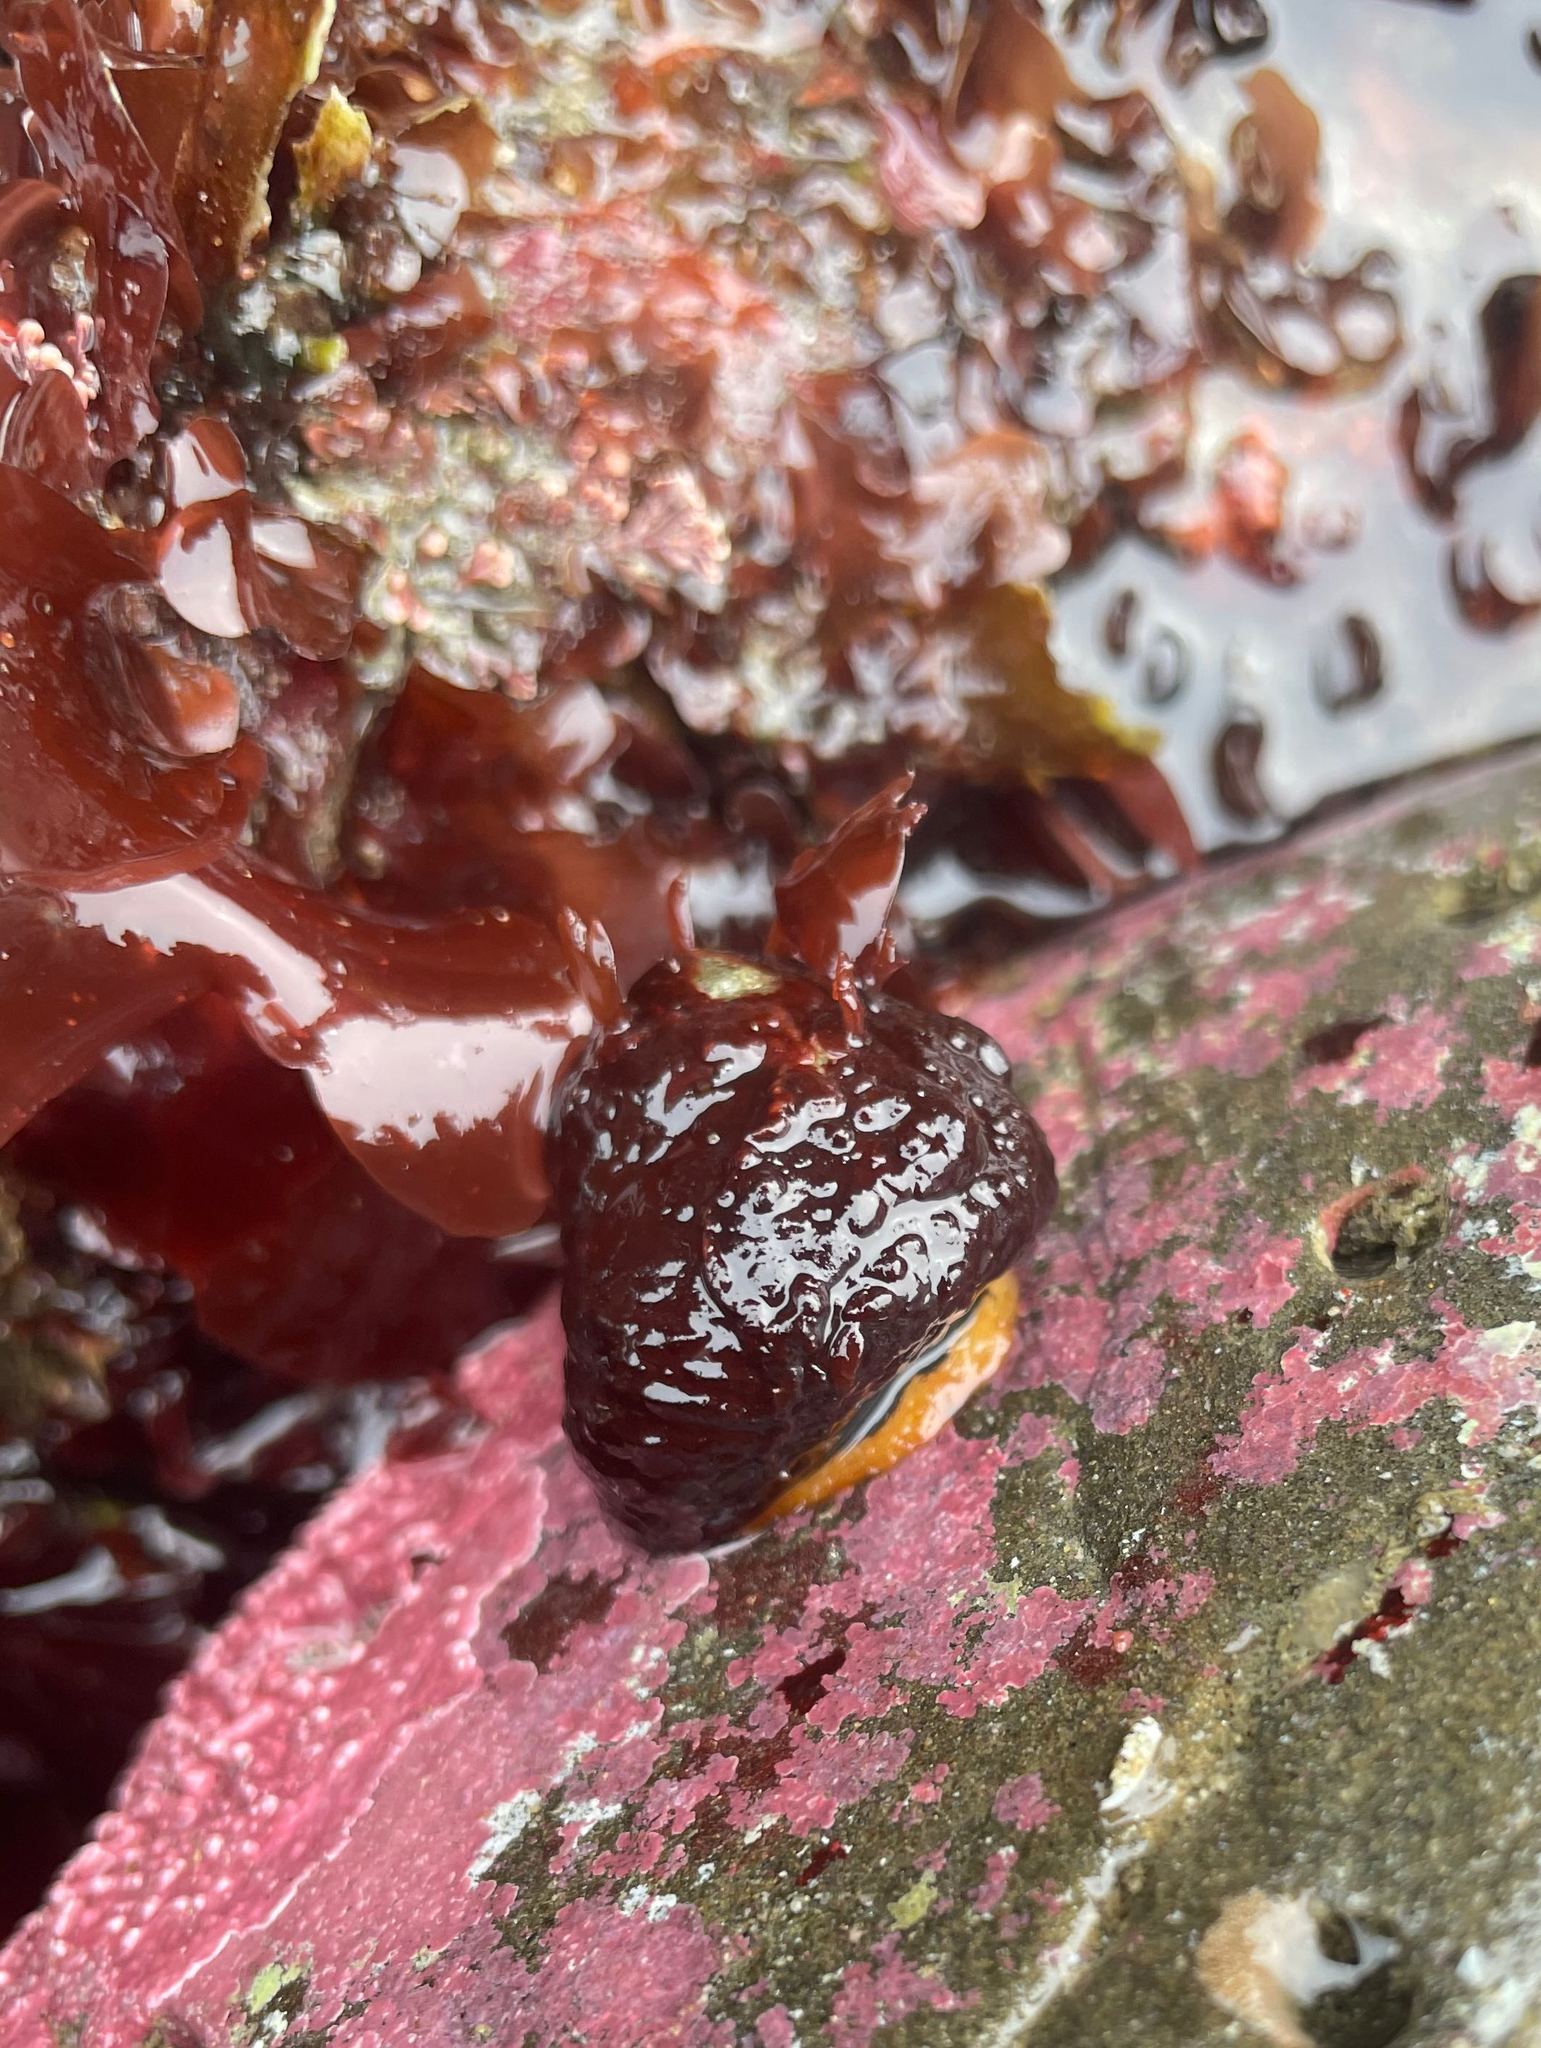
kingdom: Animalia
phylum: Mollusca
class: Gastropoda
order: Trochida
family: Tegulidae
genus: Tegula
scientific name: Tegula funebralis
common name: Black tegula
